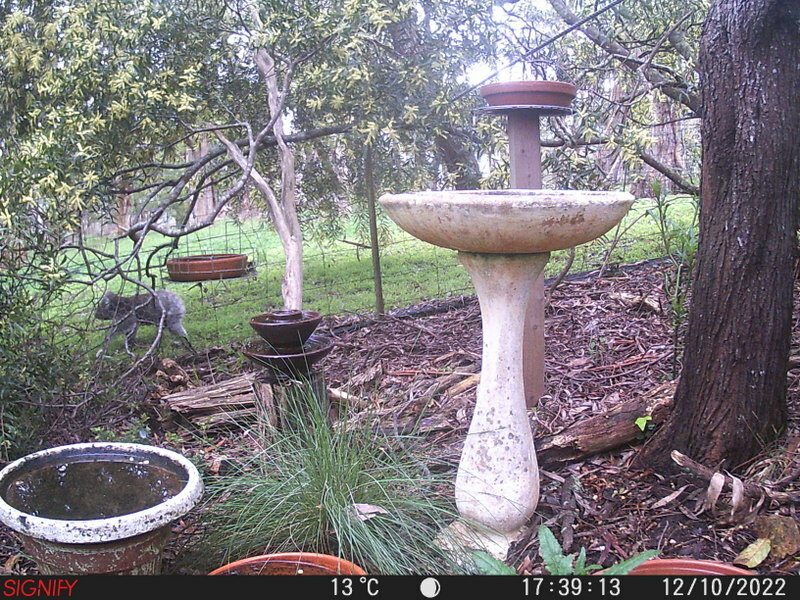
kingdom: Animalia
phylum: Chordata
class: Mammalia
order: Diprotodontia
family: Phascolarctidae
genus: Phascolarctos
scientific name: Phascolarctos cinereus
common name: Koala
